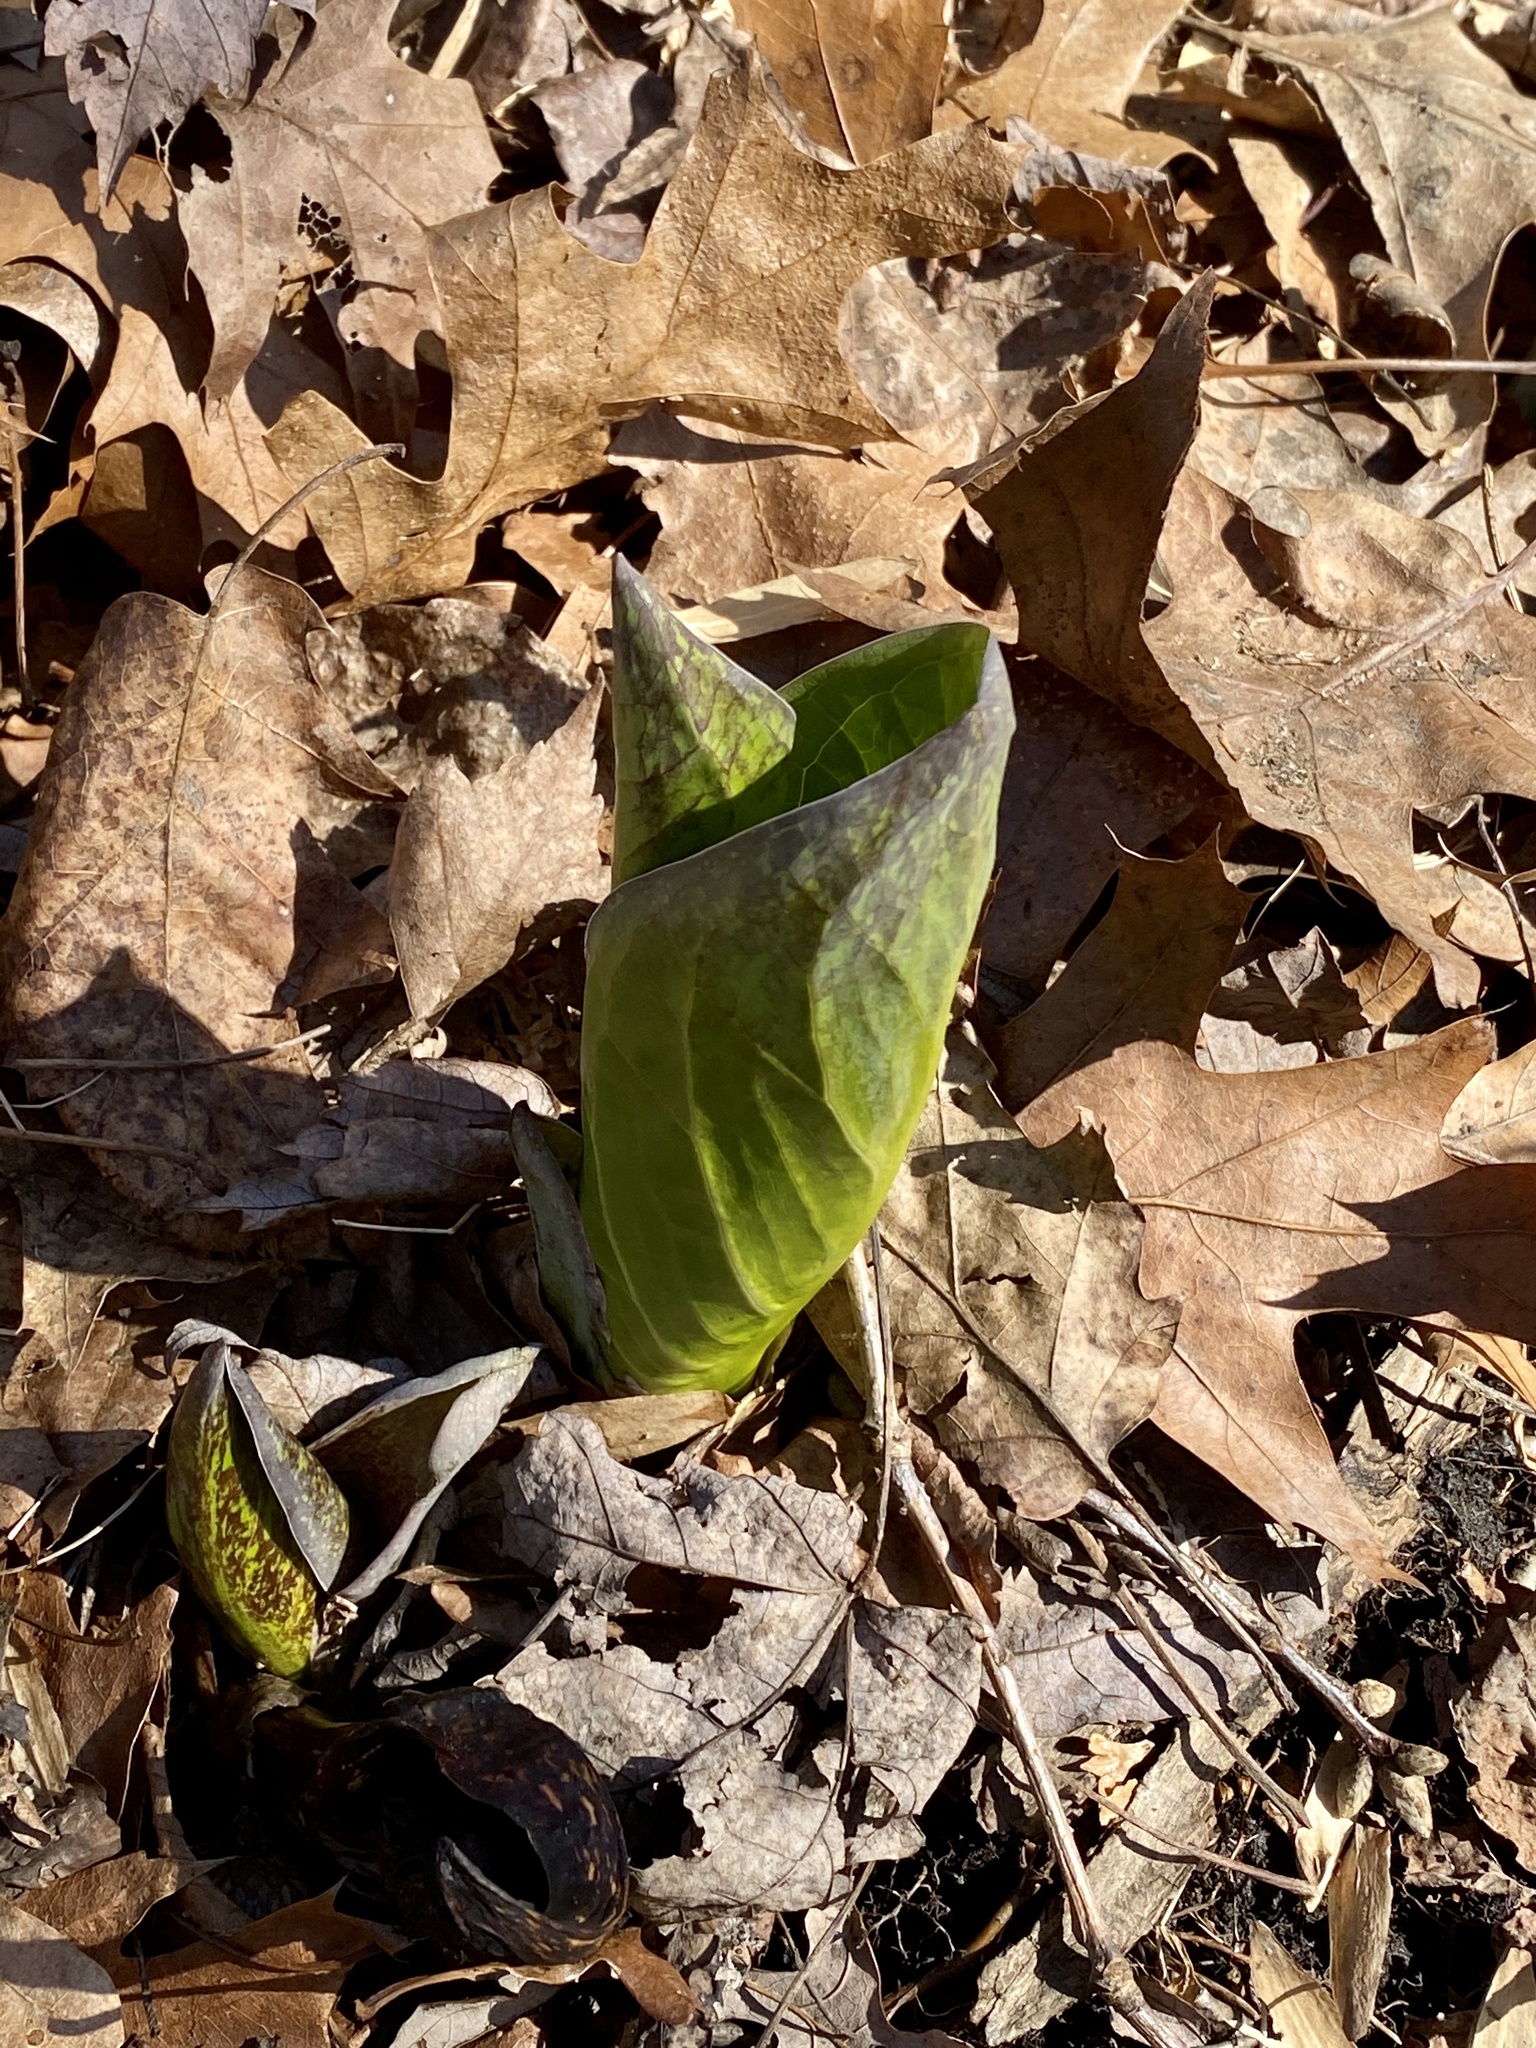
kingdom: Plantae
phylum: Tracheophyta
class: Liliopsida
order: Alismatales
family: Araceae
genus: Symplocarpus
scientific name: Symplocarpus foetidus
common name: Eastern skunk cabbage
